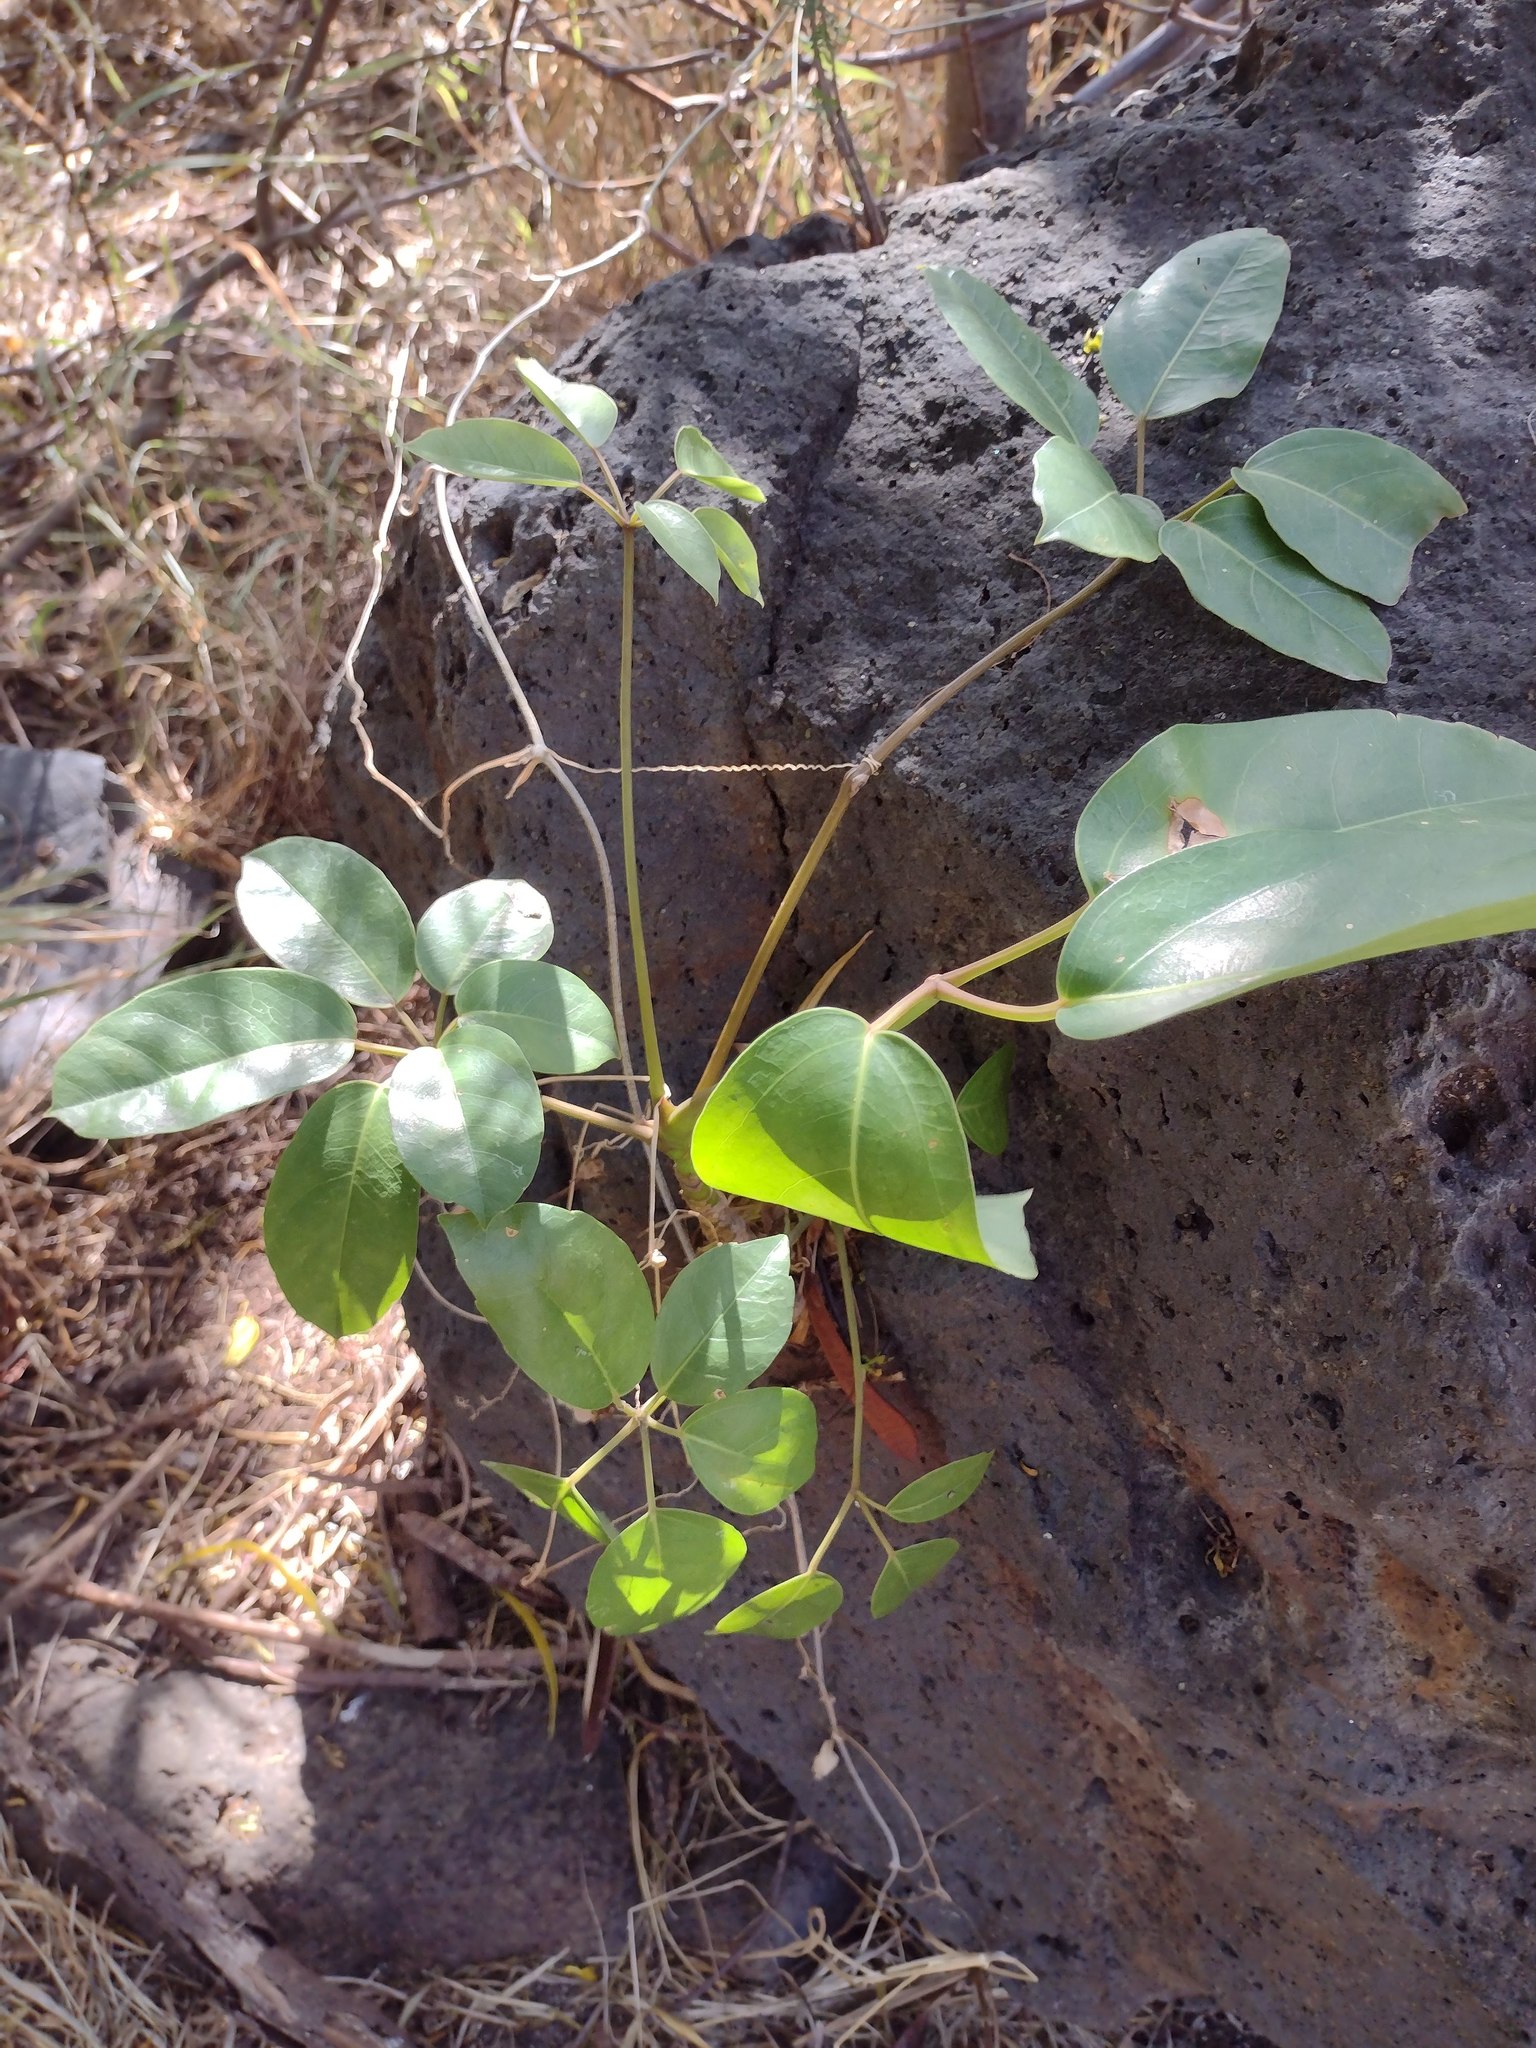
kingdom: Plantae
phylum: Tracheophyta
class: Magnoliopsida
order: Apiales
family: Araliaceae
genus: Heptapleurum
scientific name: Heptapleurum actinophyllum
